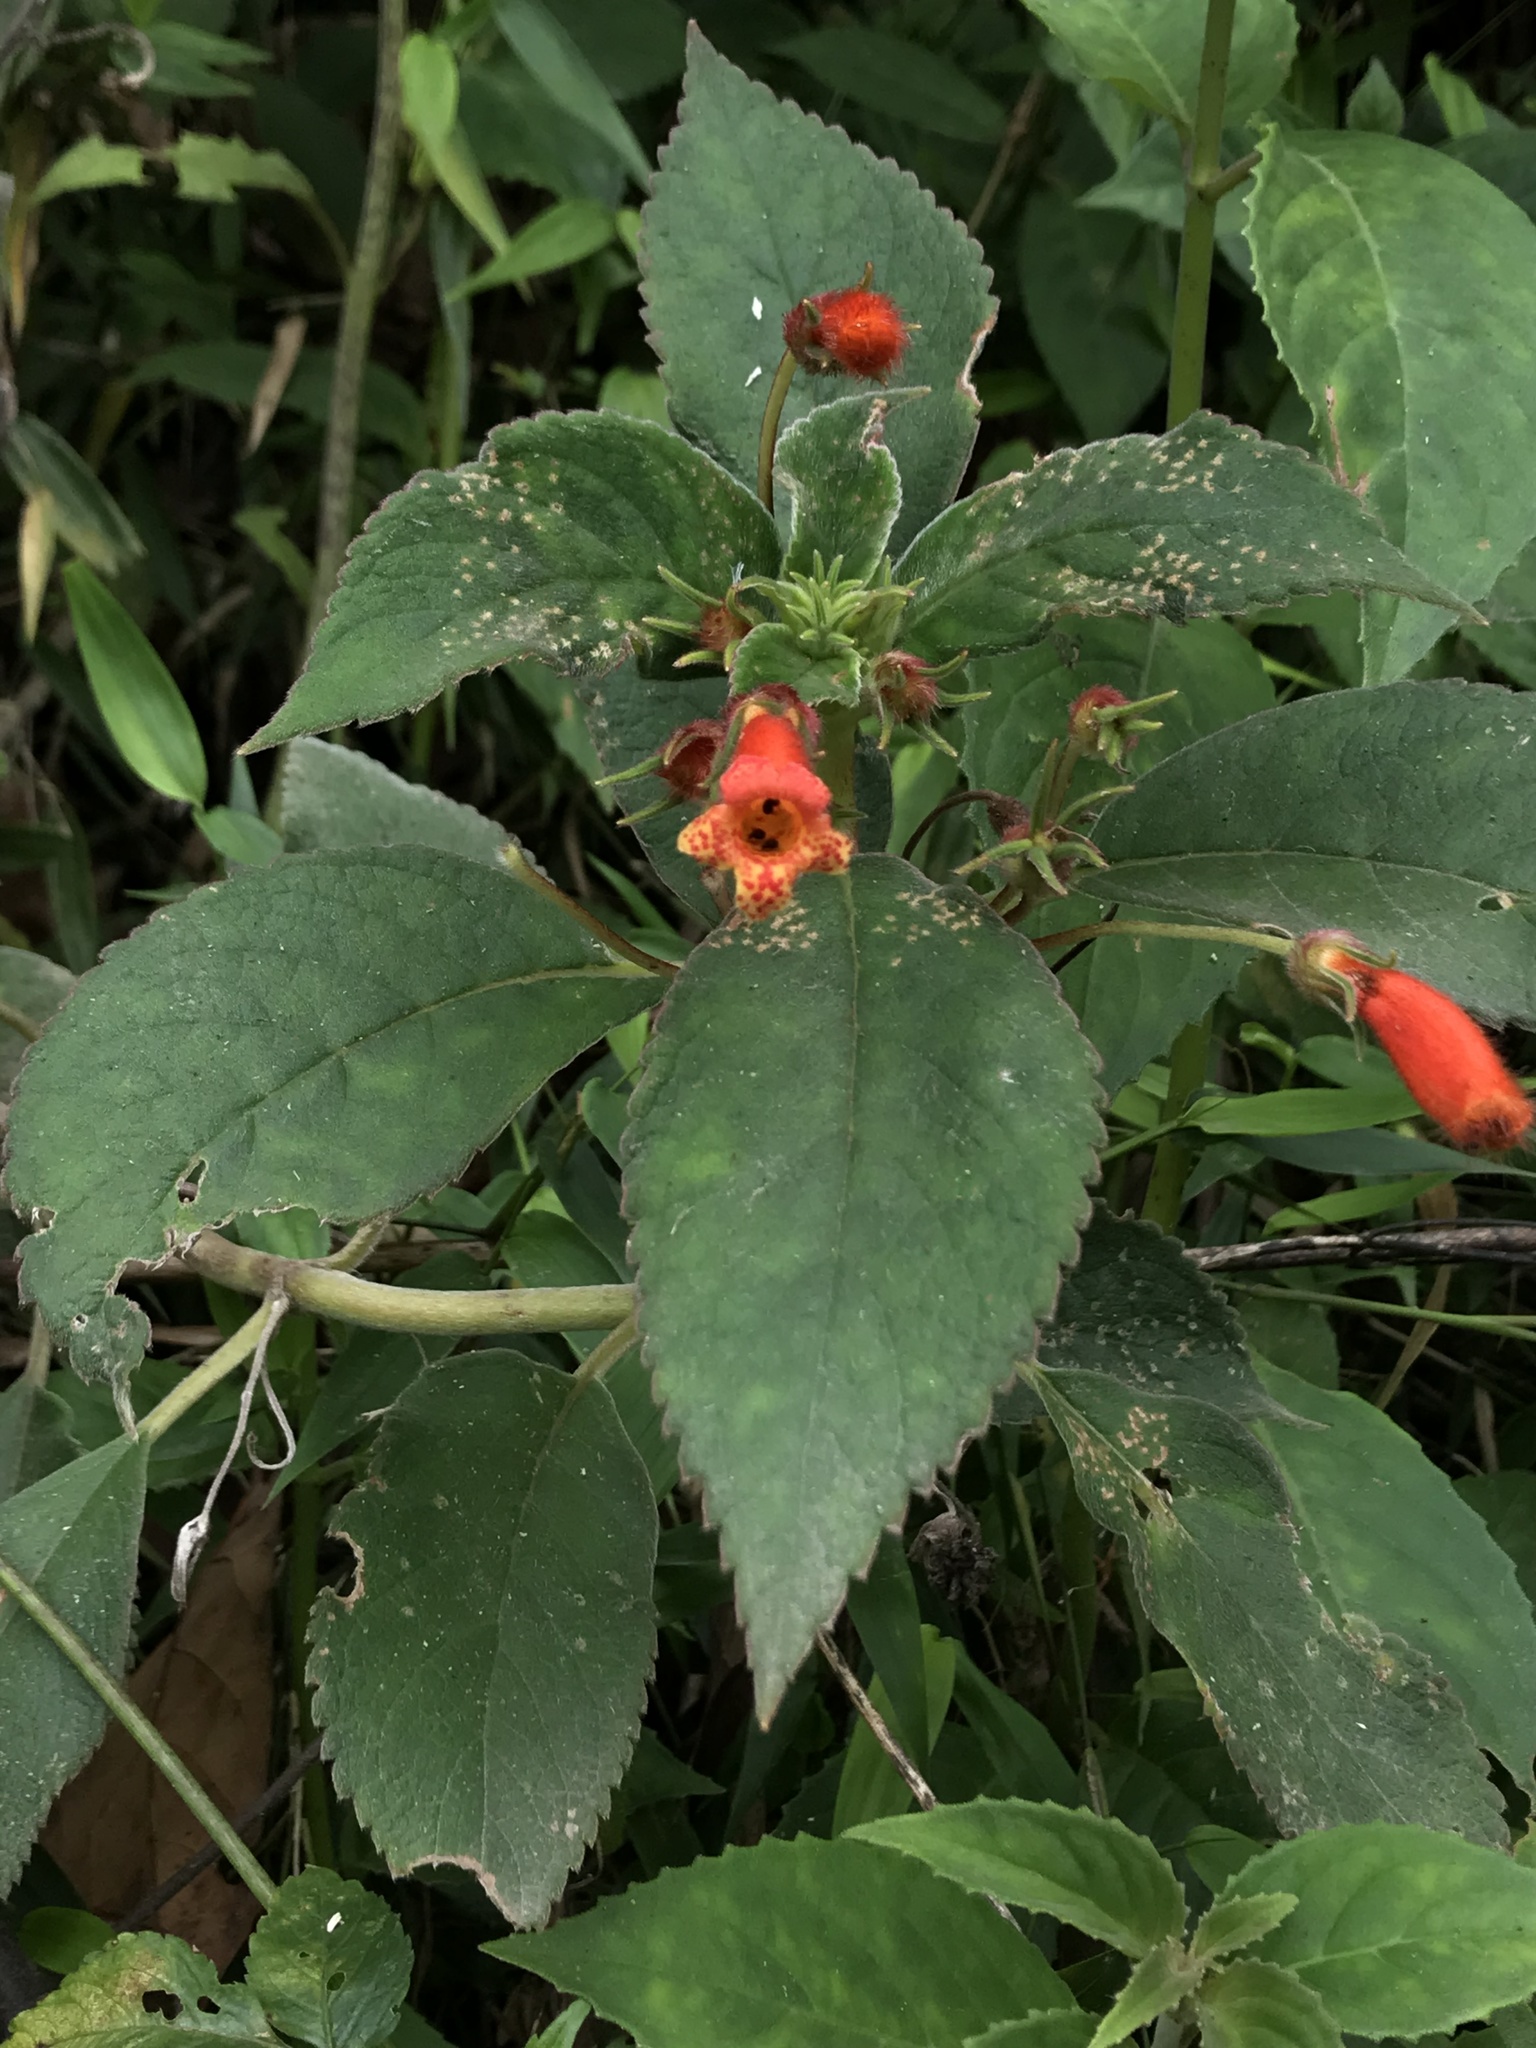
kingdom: Plantae
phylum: Tracheophyta
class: Magnoliopsida
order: Lamiales
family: Gesneriaceae
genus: Kohleria
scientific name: Kohleria hirsuta
